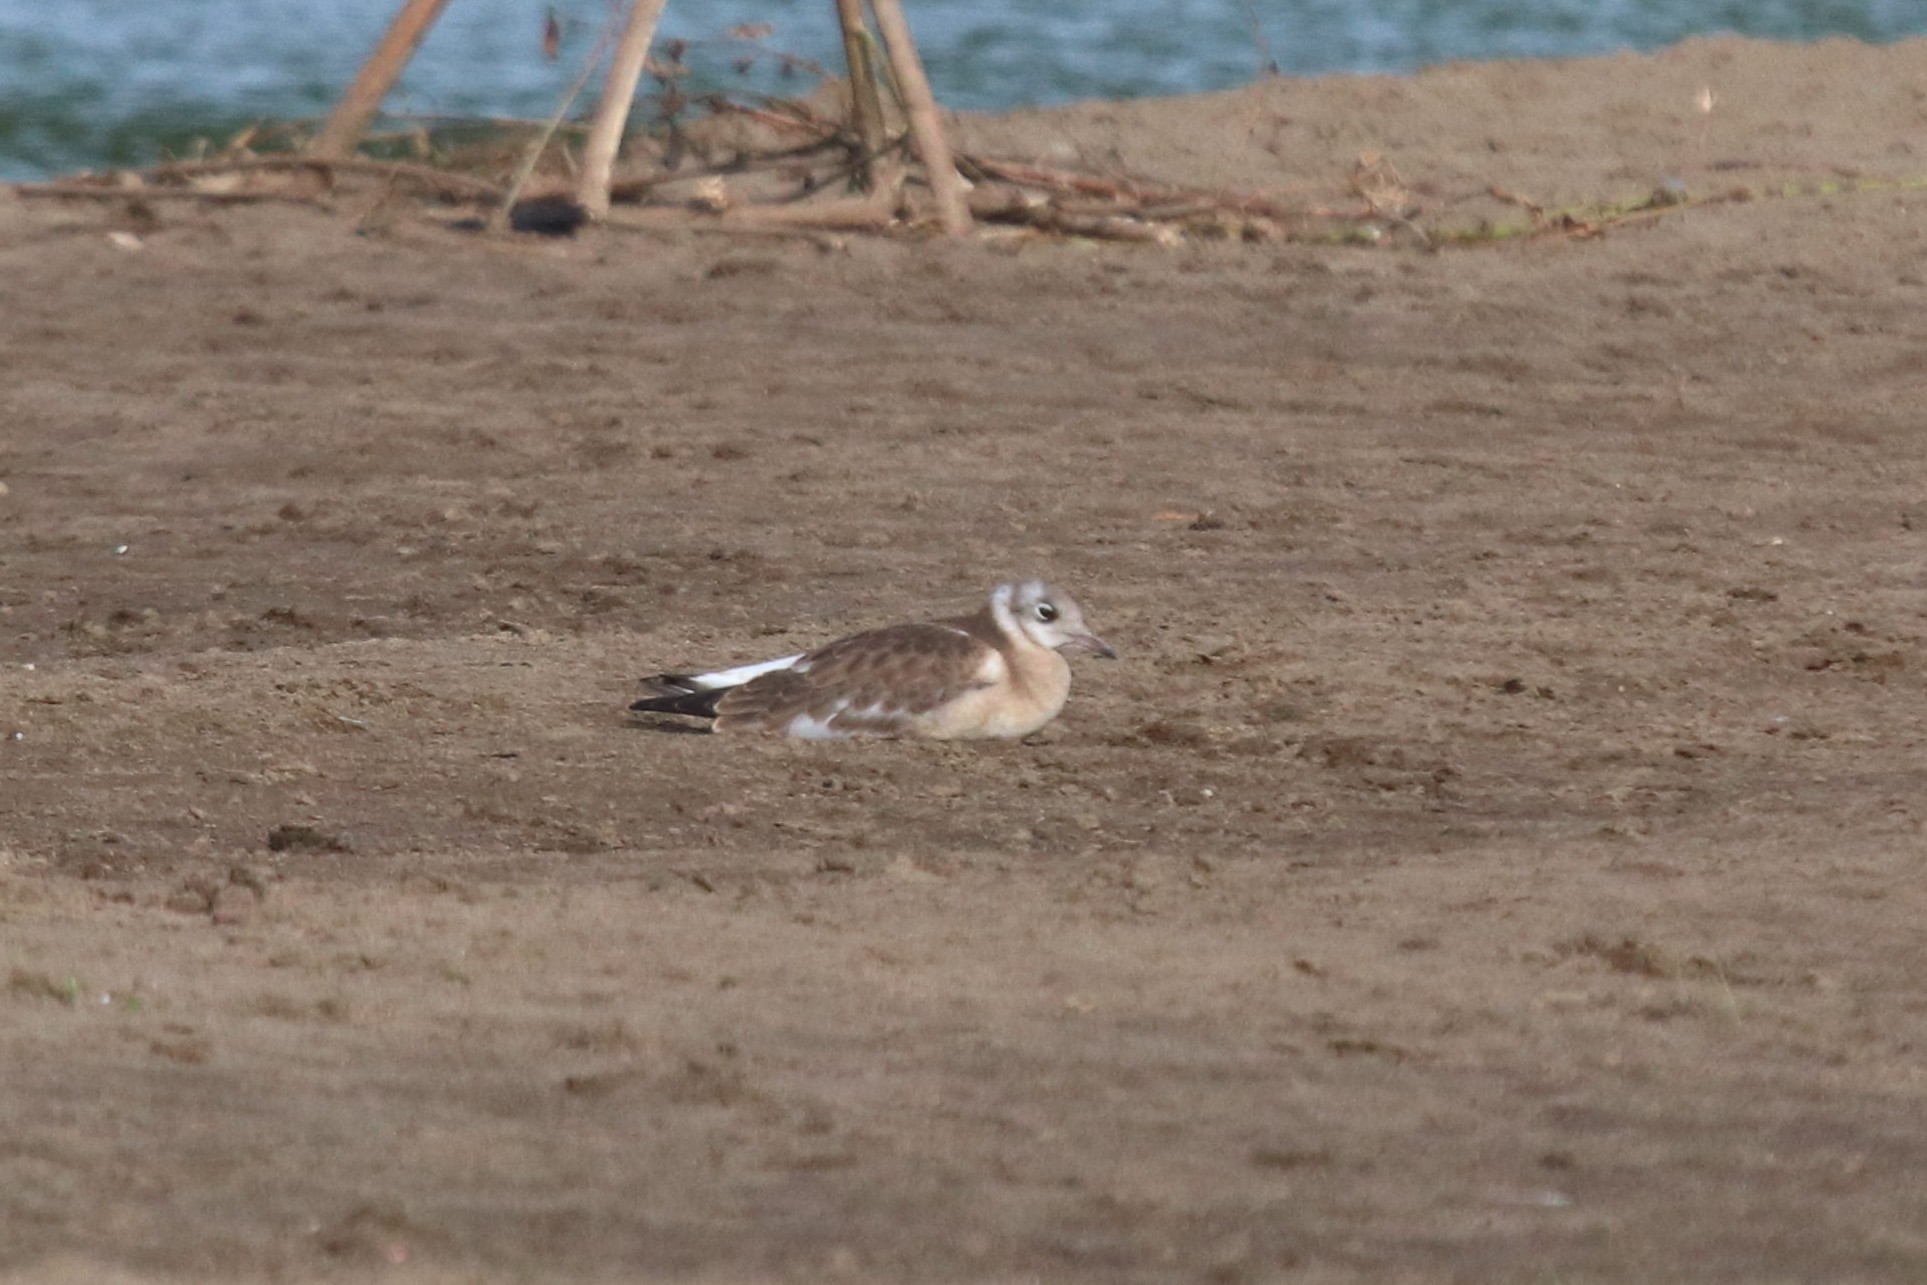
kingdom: Animalia
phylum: Chordata
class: Aves
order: Charadriiformes
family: Laridae
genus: Chroicocephalus
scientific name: Chroicocephalus ridibundus
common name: Black-headed gull
